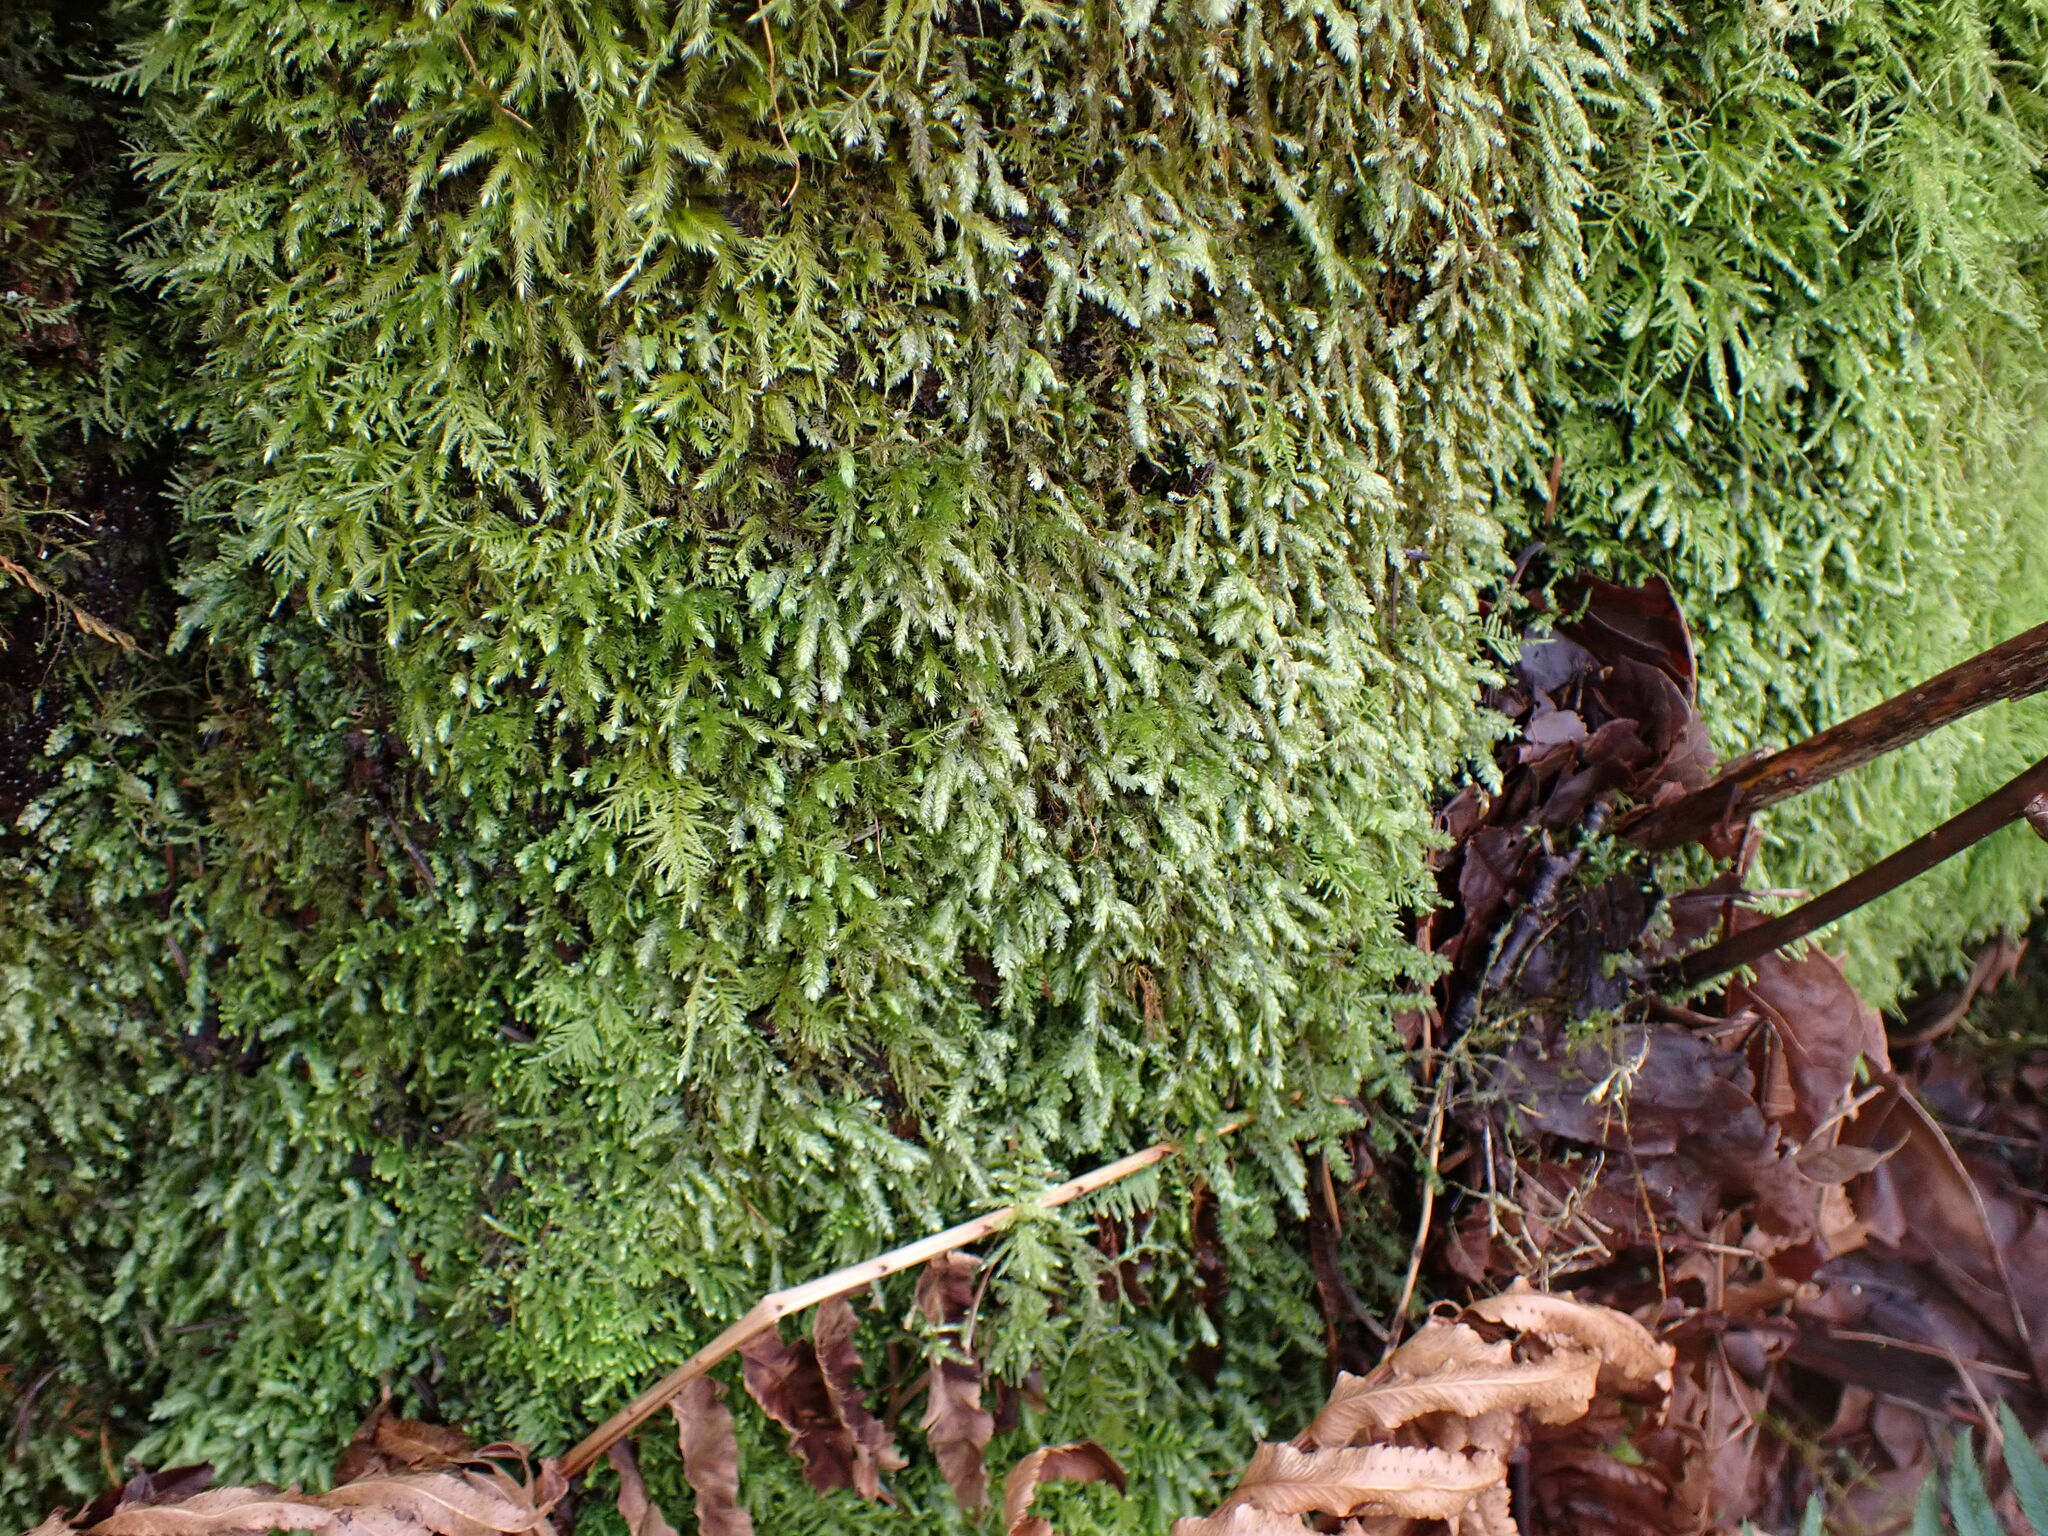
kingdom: Plantae
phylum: Bryophyta
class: Bryopsida
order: Hypnales
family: Neckeraceae
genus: Dannorrisia
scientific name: Dannorrisia bigelovii
